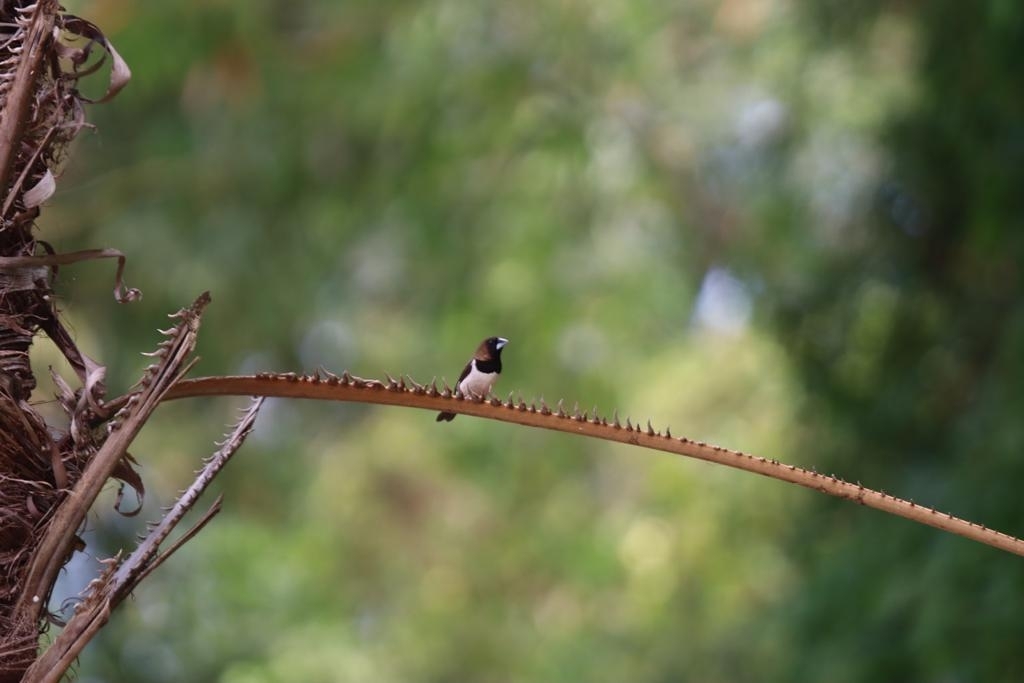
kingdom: Animalia
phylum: Chordata
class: Aves
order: Passeriformes
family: Estrildidae
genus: Lonchura
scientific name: Lonchura leucogastroides
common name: Javan munia
